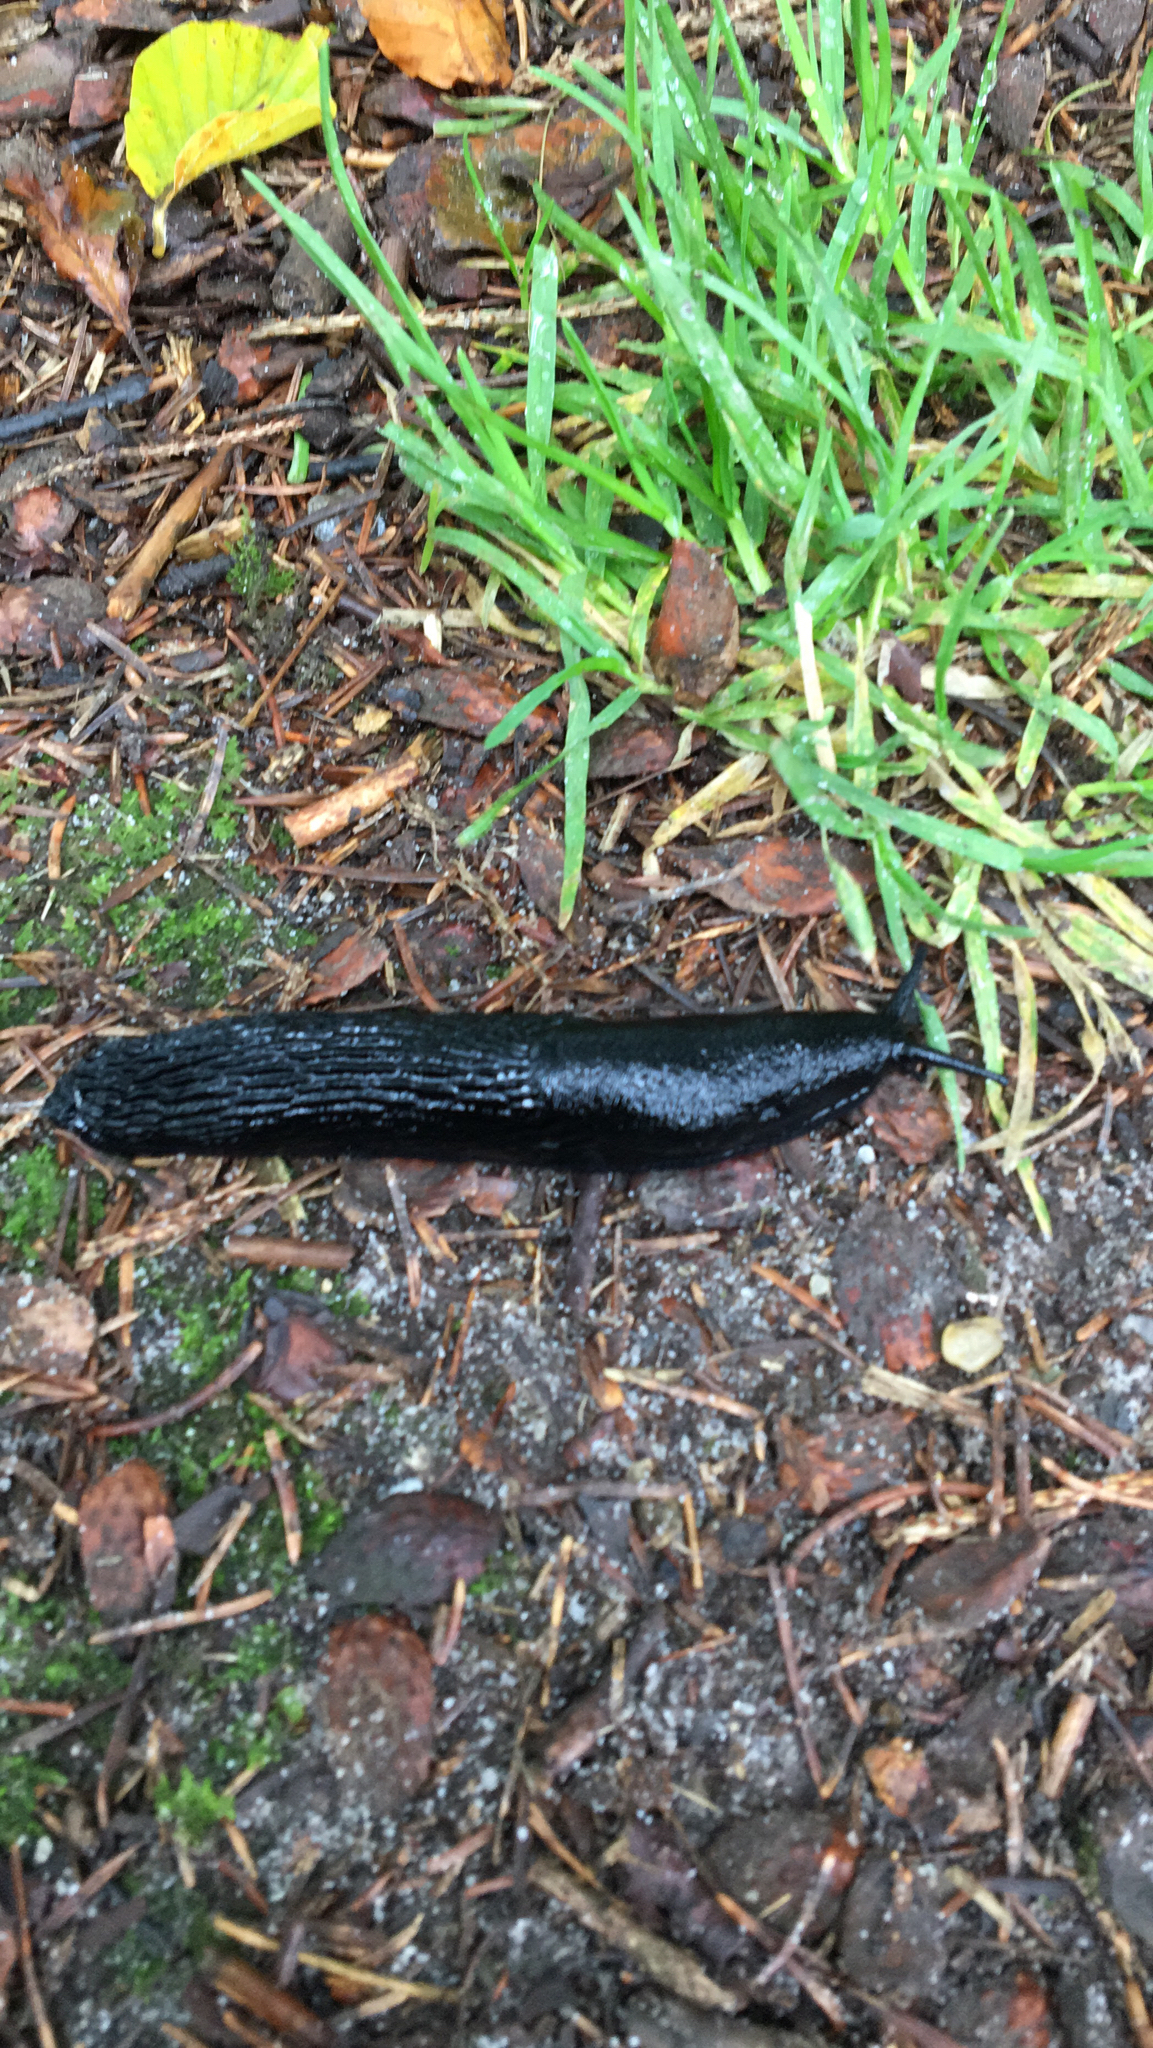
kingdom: Animalia
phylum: Mollusca
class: Gastropoda
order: Stylommatophora
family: Arionidae
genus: Arion
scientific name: Arion ater
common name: Black arion
